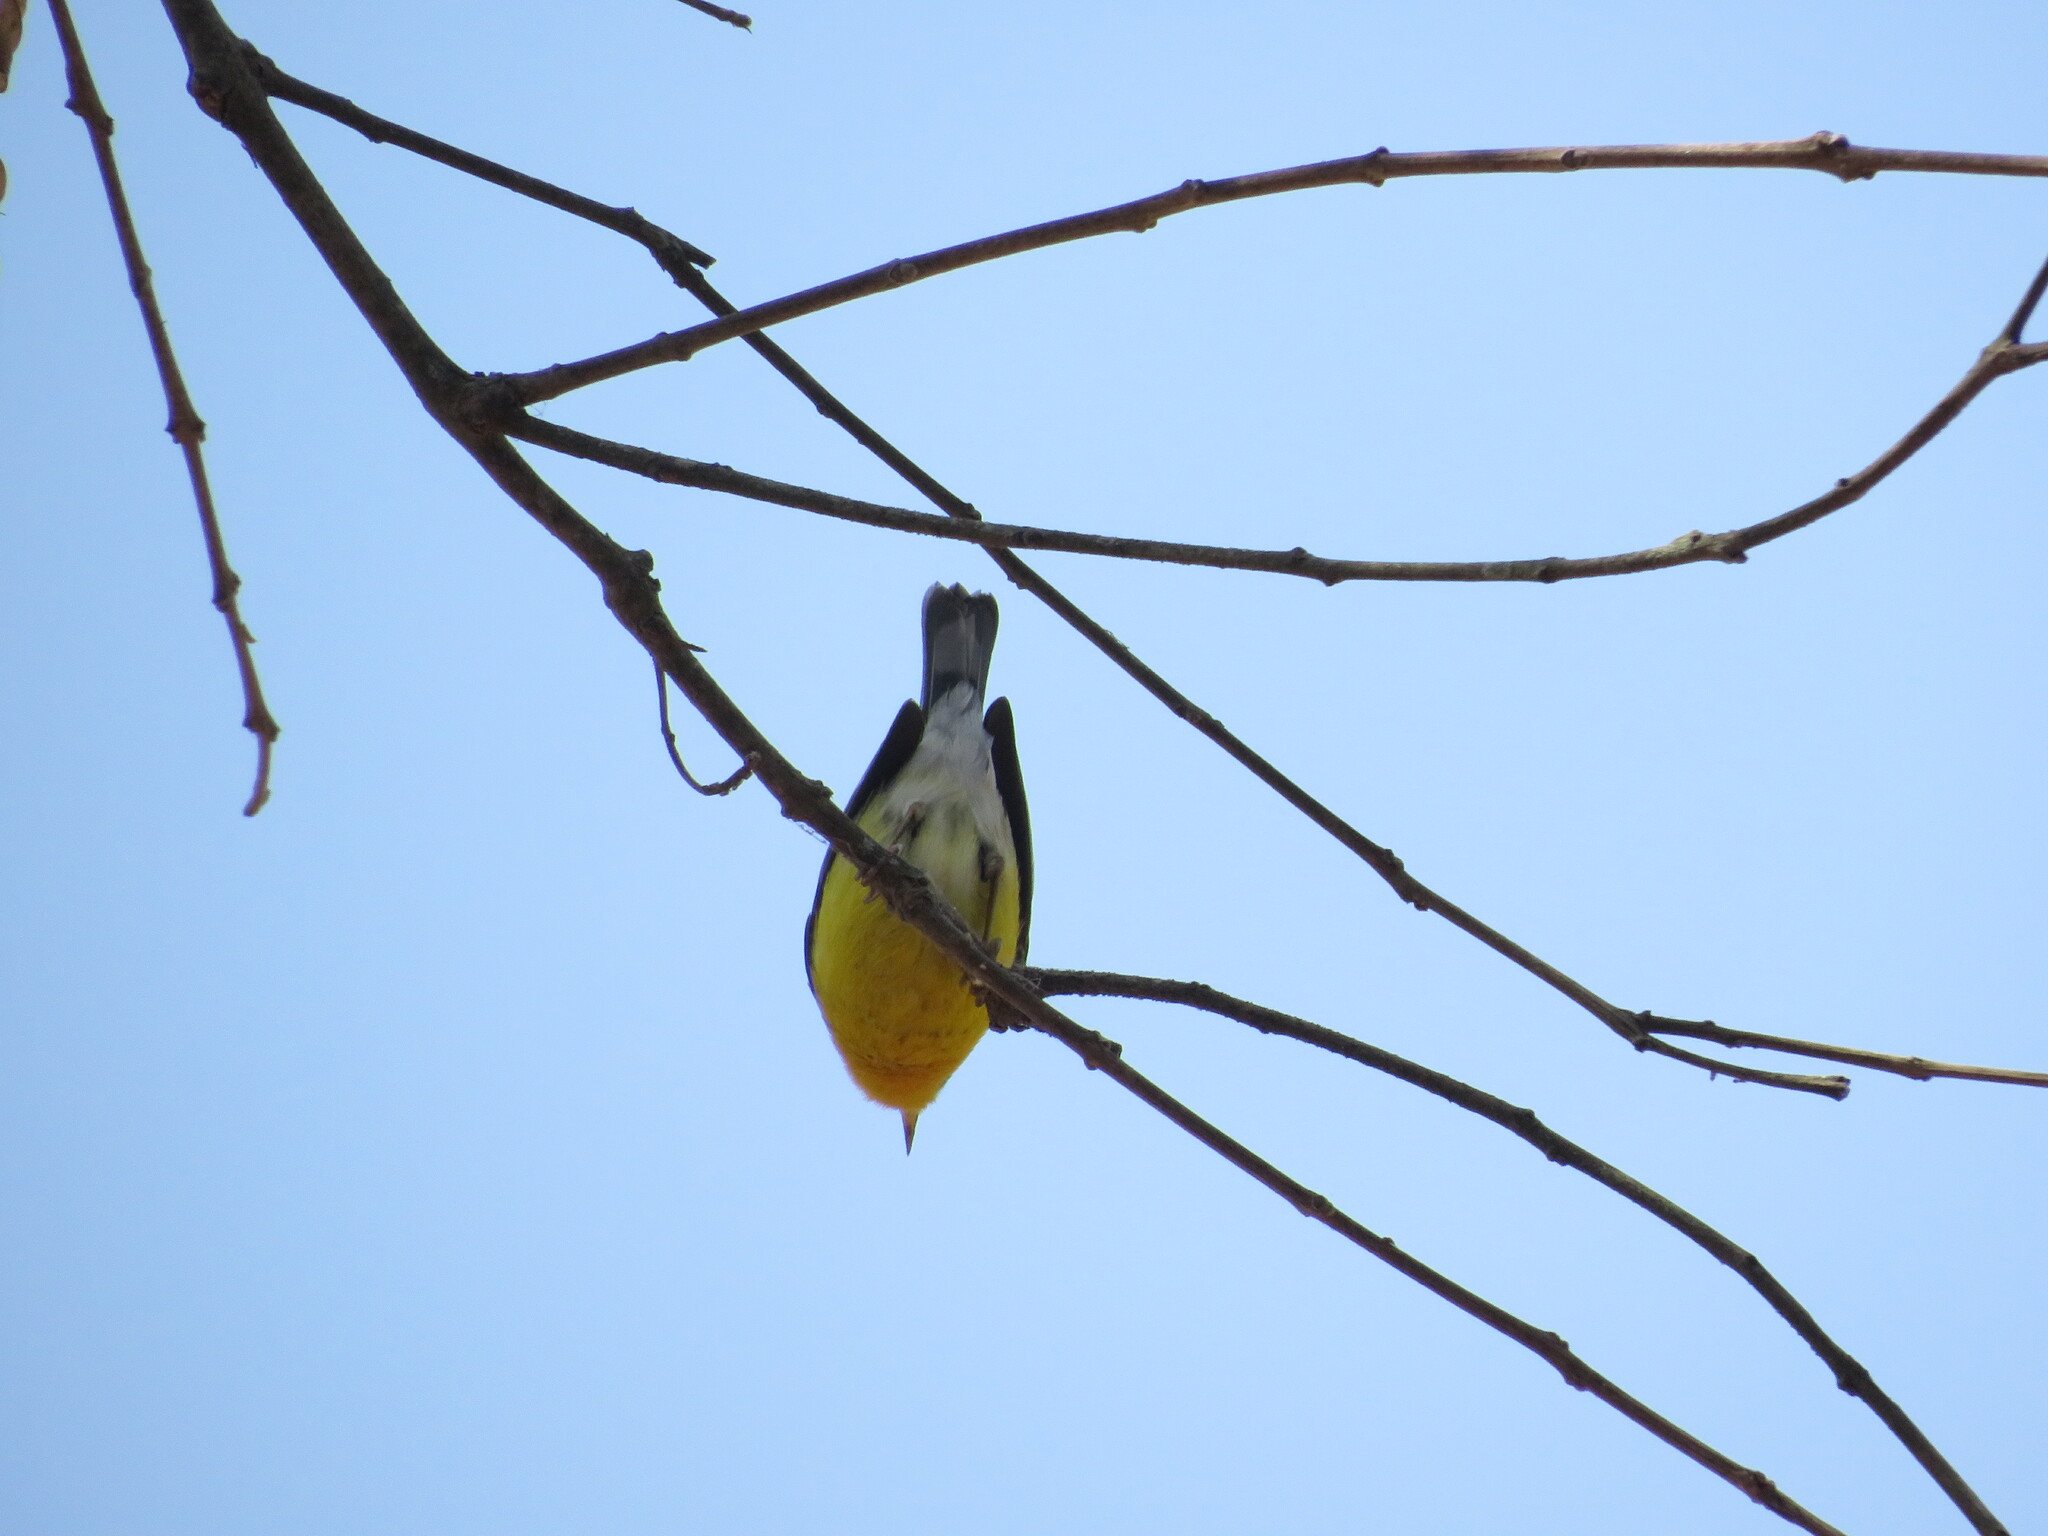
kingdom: Animalia
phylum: Chordata
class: Aves
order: Passeriformes
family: Parulidae
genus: Setophaga
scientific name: Setophaga pitiayumi
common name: Tropical parula
